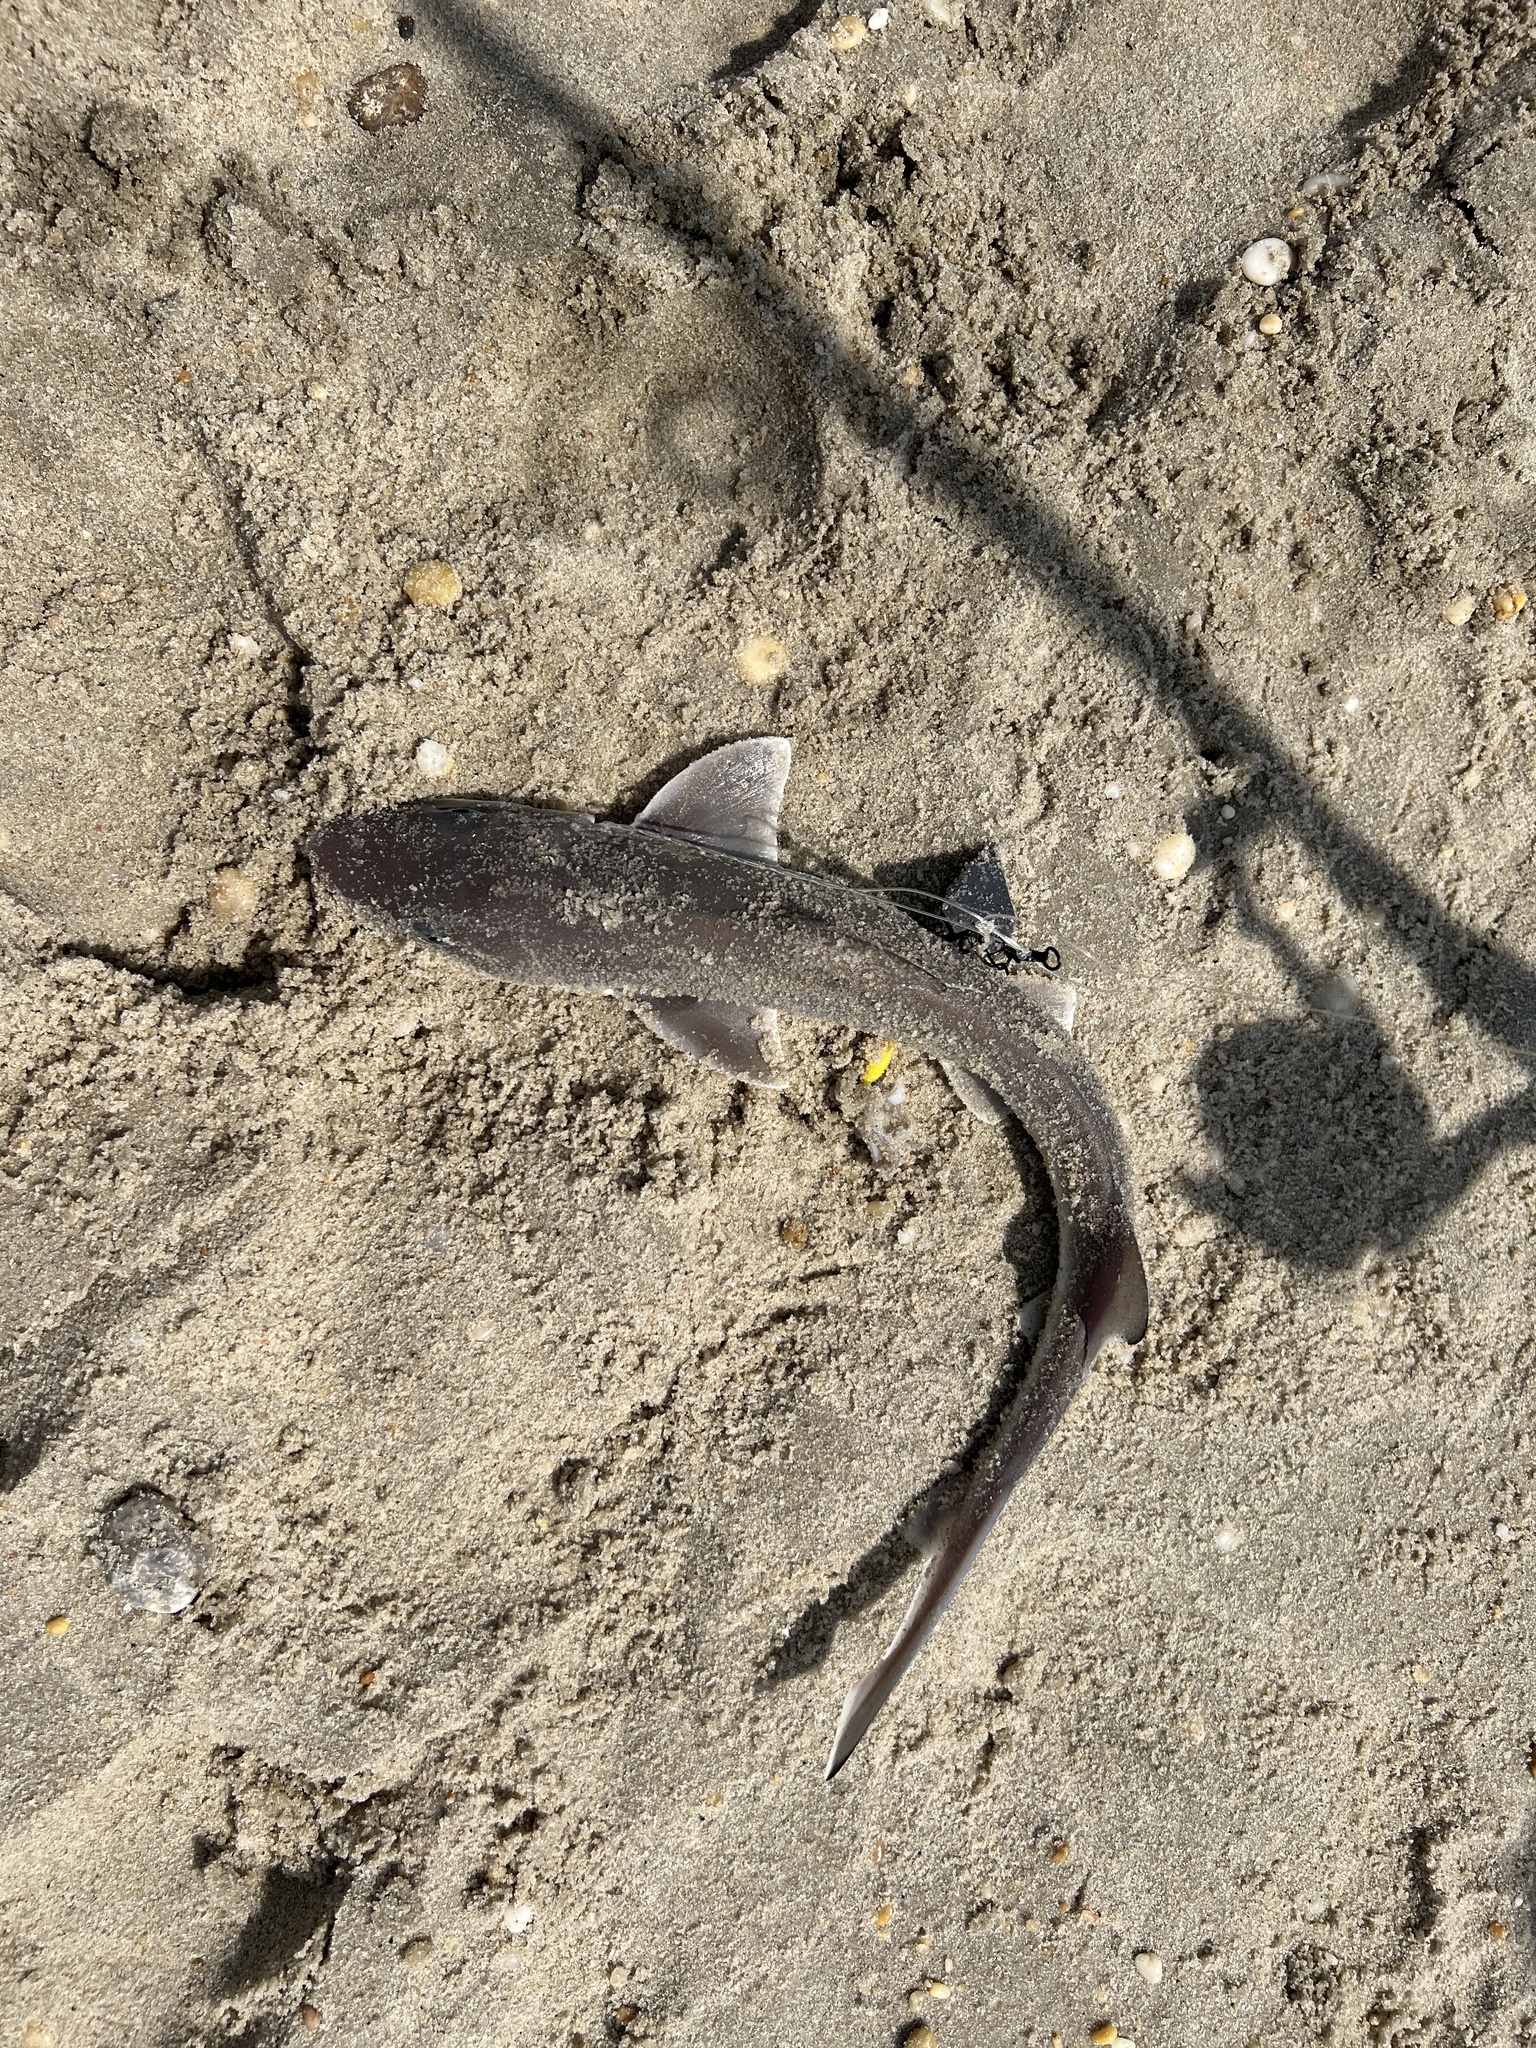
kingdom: Animalia
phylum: Chordata
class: Elasmobranchii
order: Carcharhiniformes
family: Triakidae
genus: Mustelus
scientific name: Mustelus canis
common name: Smooth dogfish
